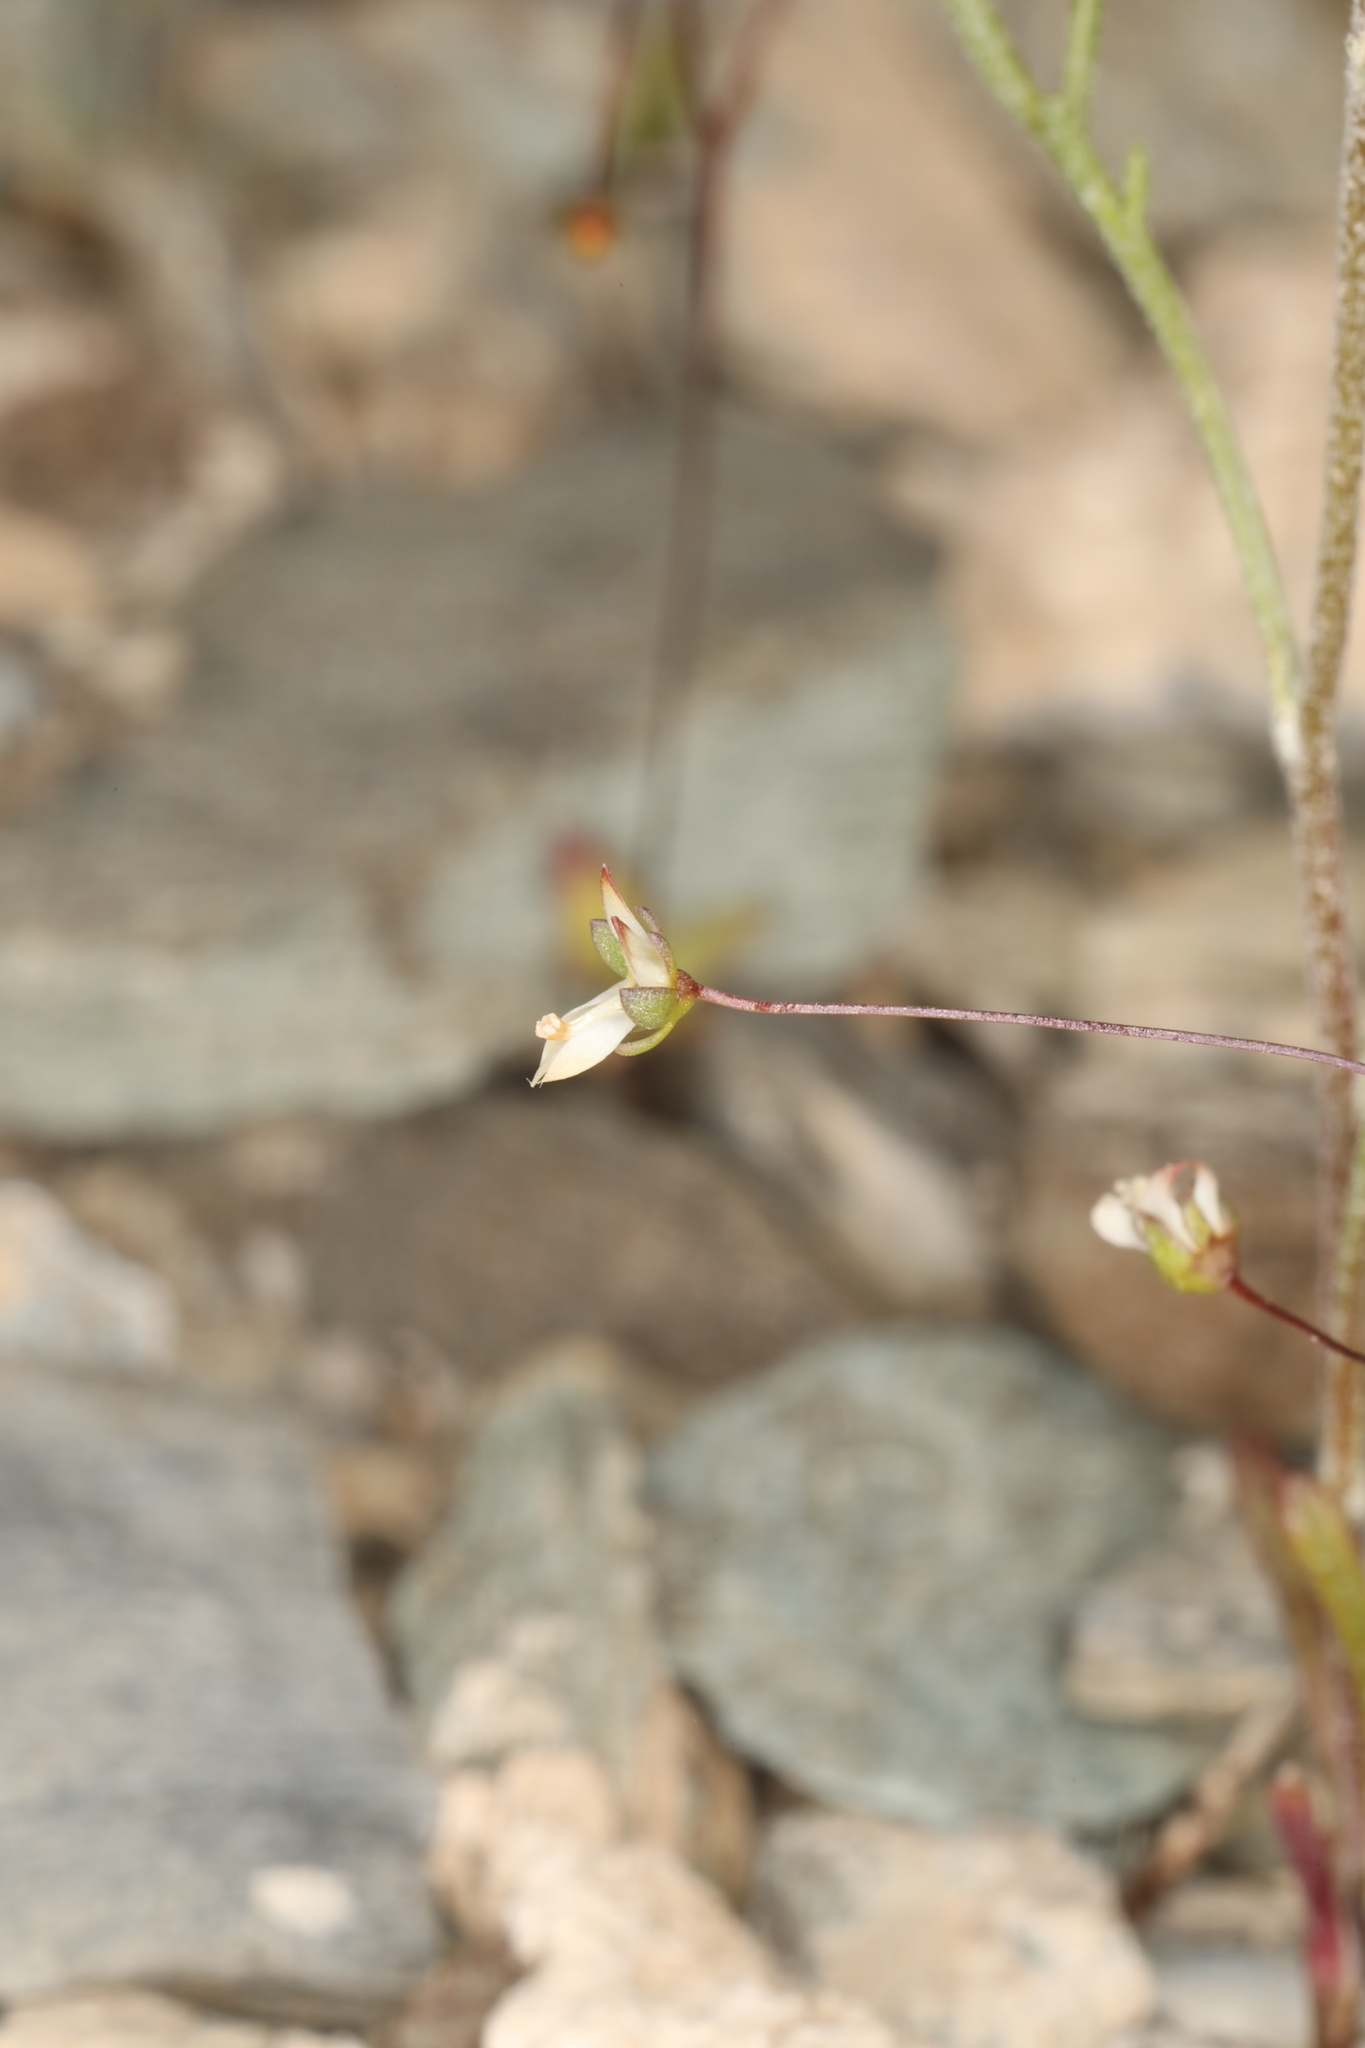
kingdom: Plantae
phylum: Tracheophyta
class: Magnoliopsida
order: Asterales
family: Campanulaceae
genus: Nemacladus
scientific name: Nemacladus morefieldii
